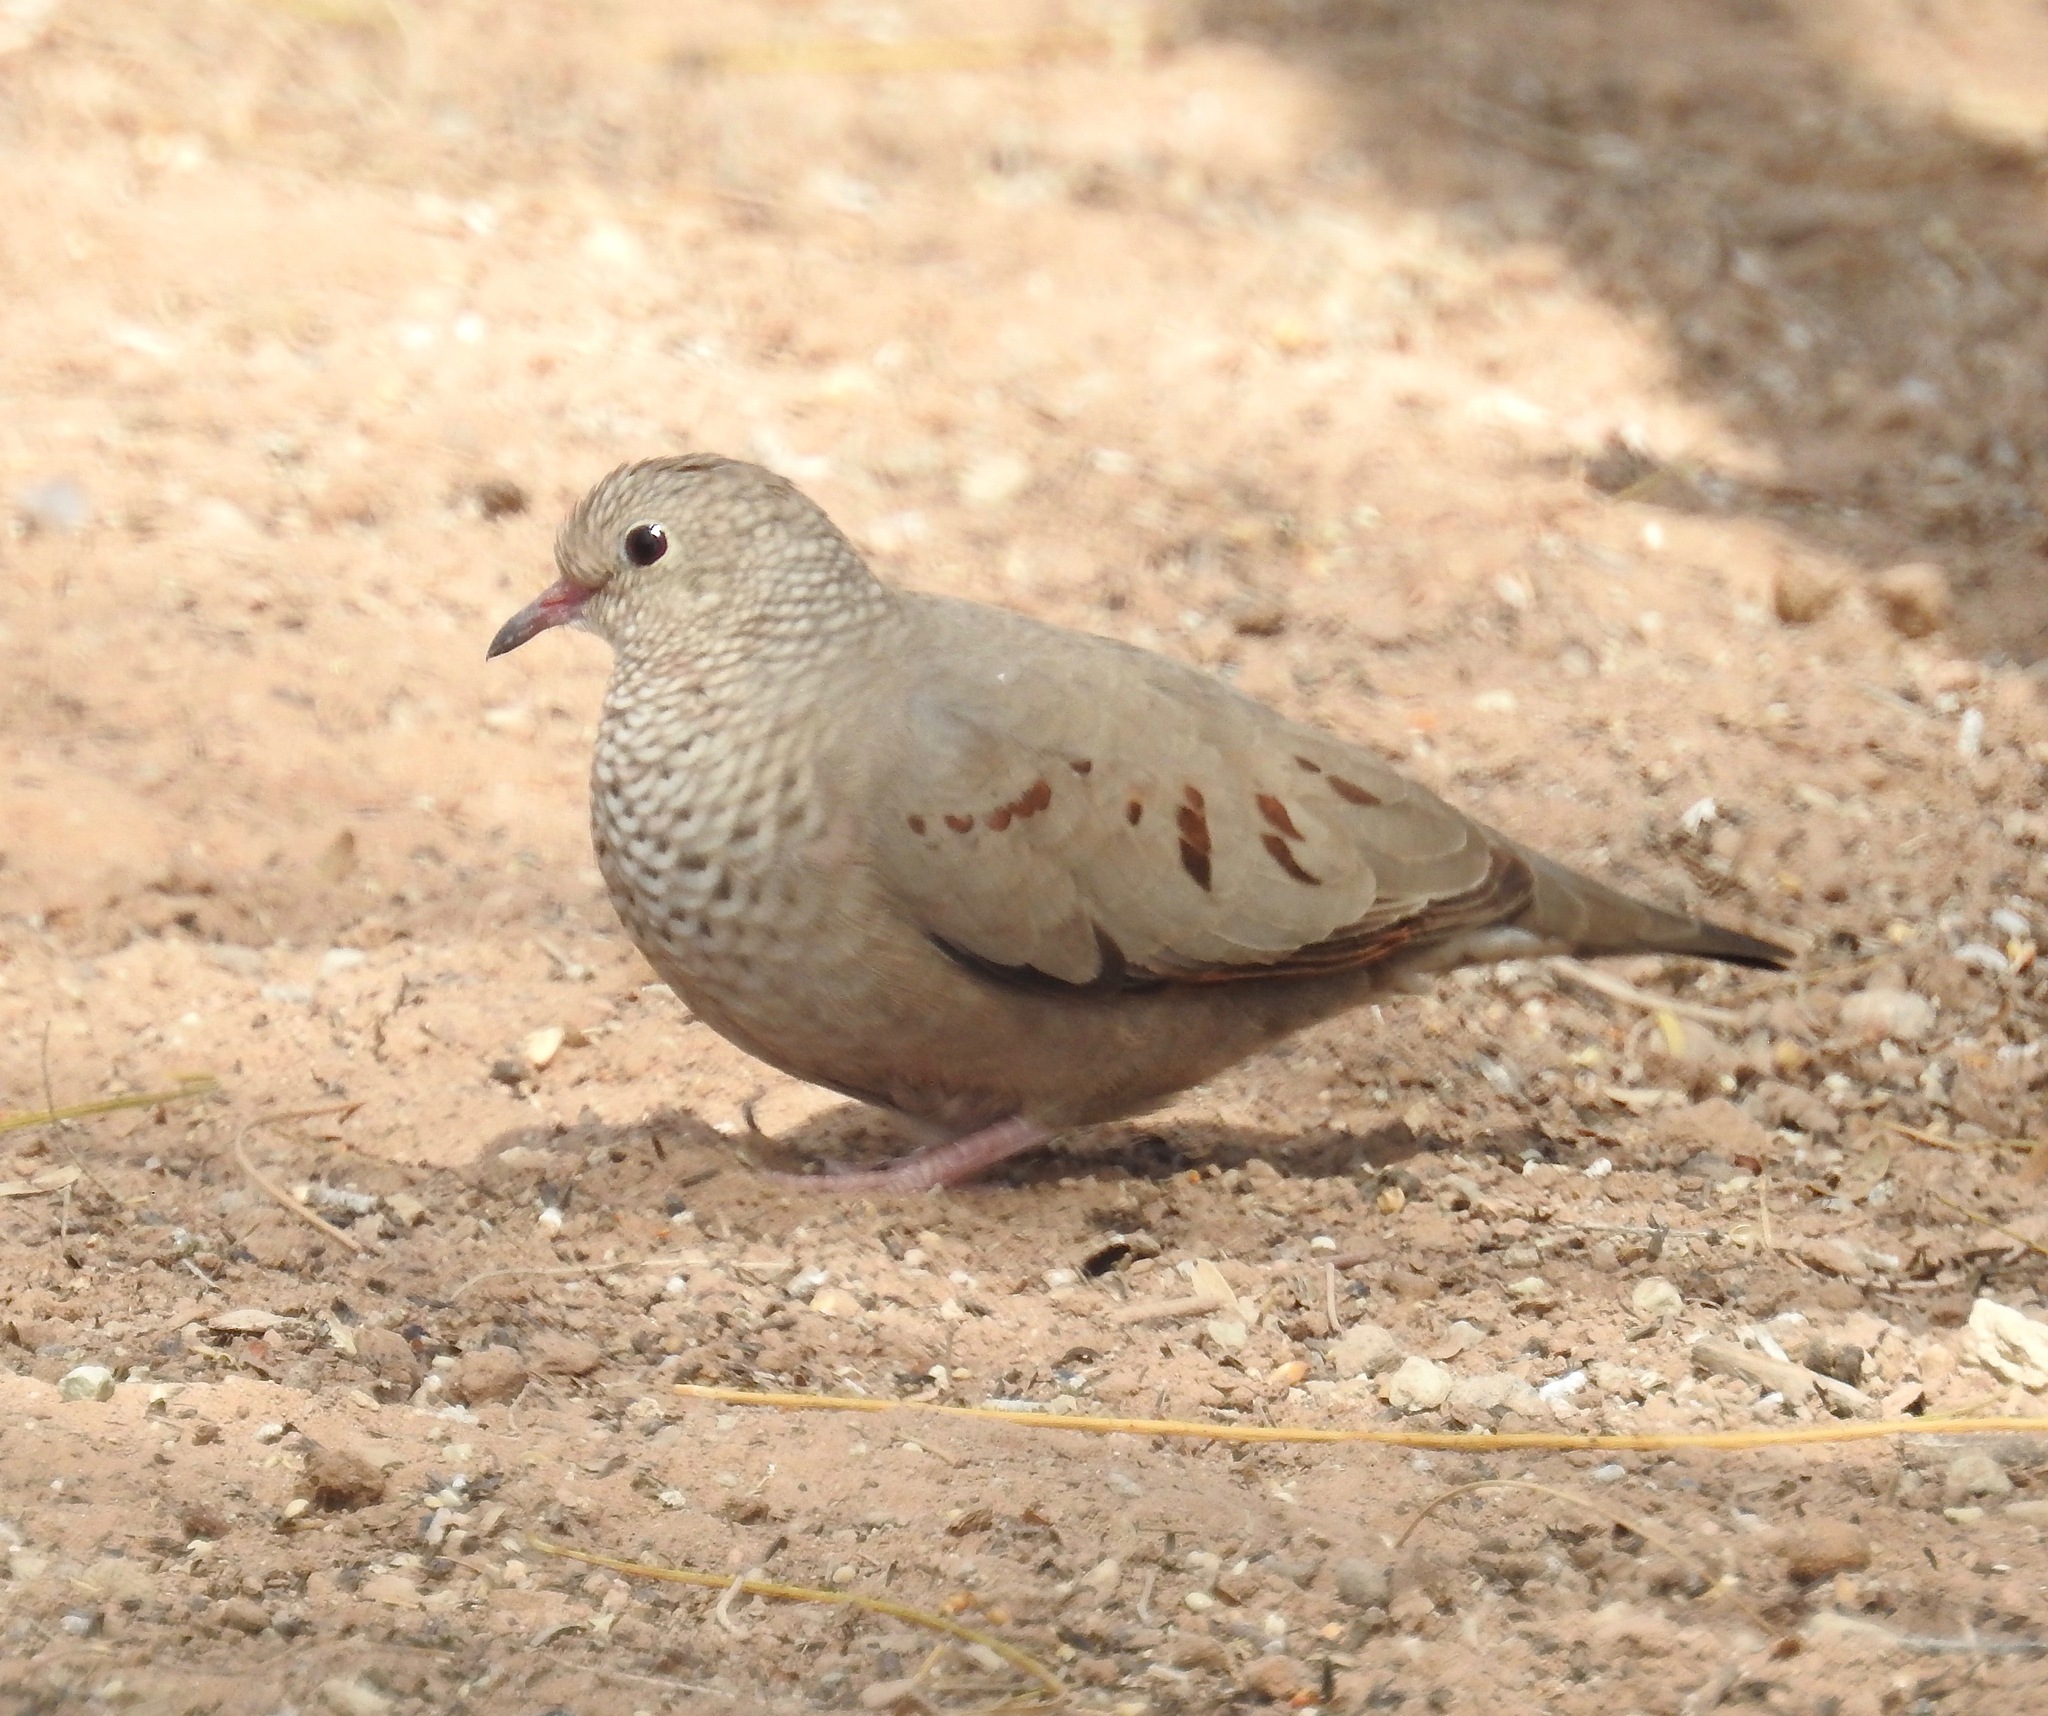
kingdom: Animalia
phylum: Chordata
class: Aves
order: Columbiformes
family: Columbidae
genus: Columbina
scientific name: Columbina passerina
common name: Common ground-dove
